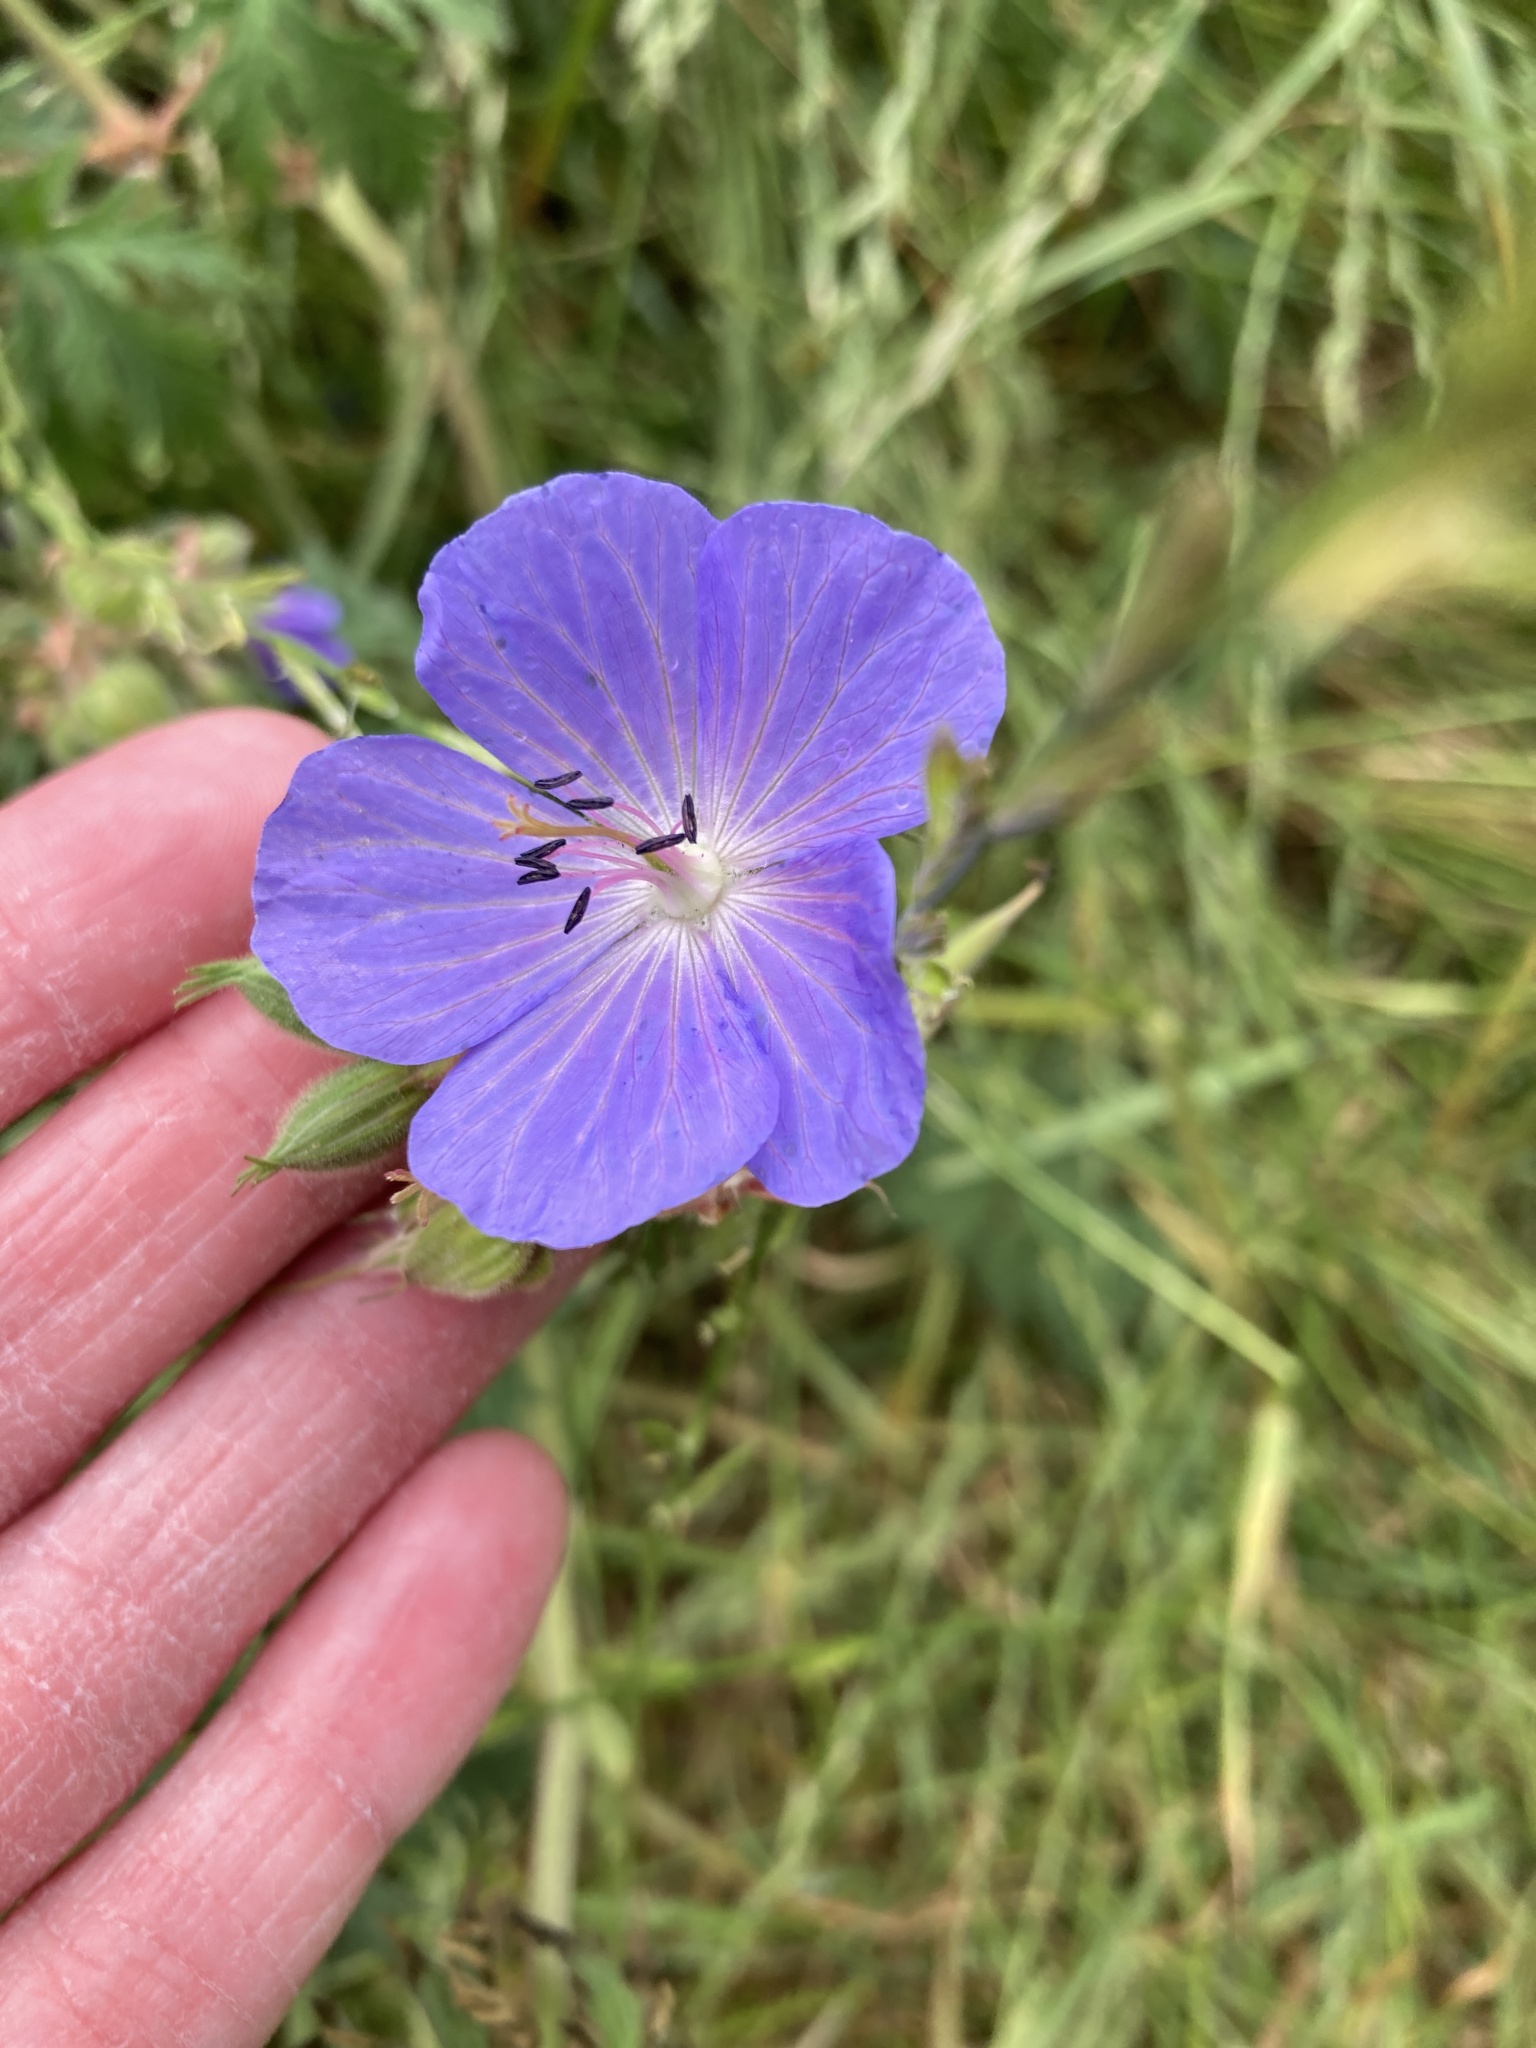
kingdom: Plantae
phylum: Tracheophyta
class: Magnoliopsida
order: Geraniales
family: Geraniaceae
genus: Geranium
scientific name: Geranium pratense
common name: Meadow crane's-bill
